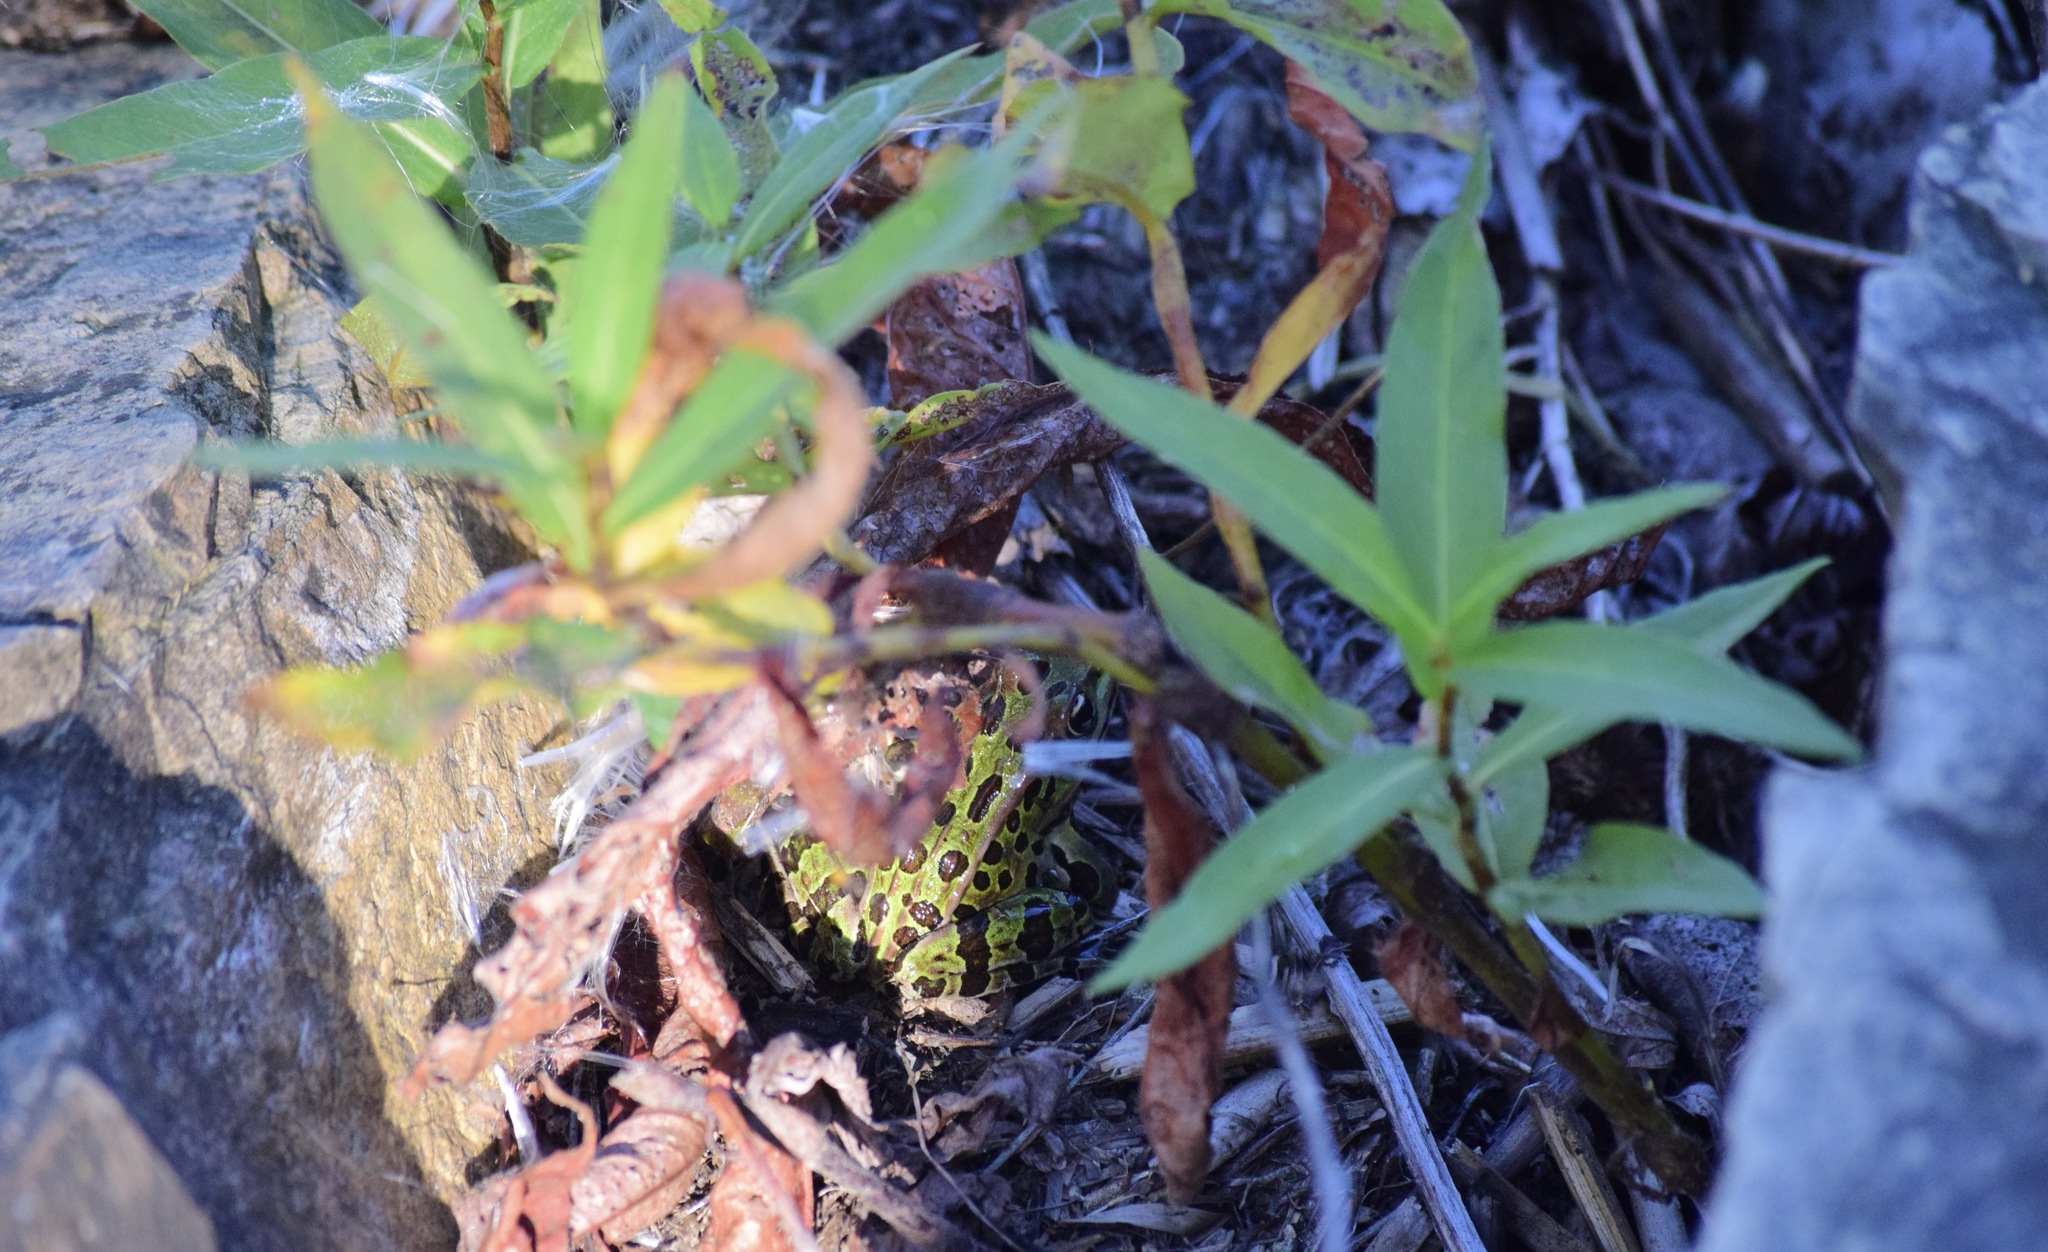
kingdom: Animalia
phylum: Chordata
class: Amphibia
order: Anura
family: Ranidae
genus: Lithobates
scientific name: Lithobates pipiens
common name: Northern leopard frog
